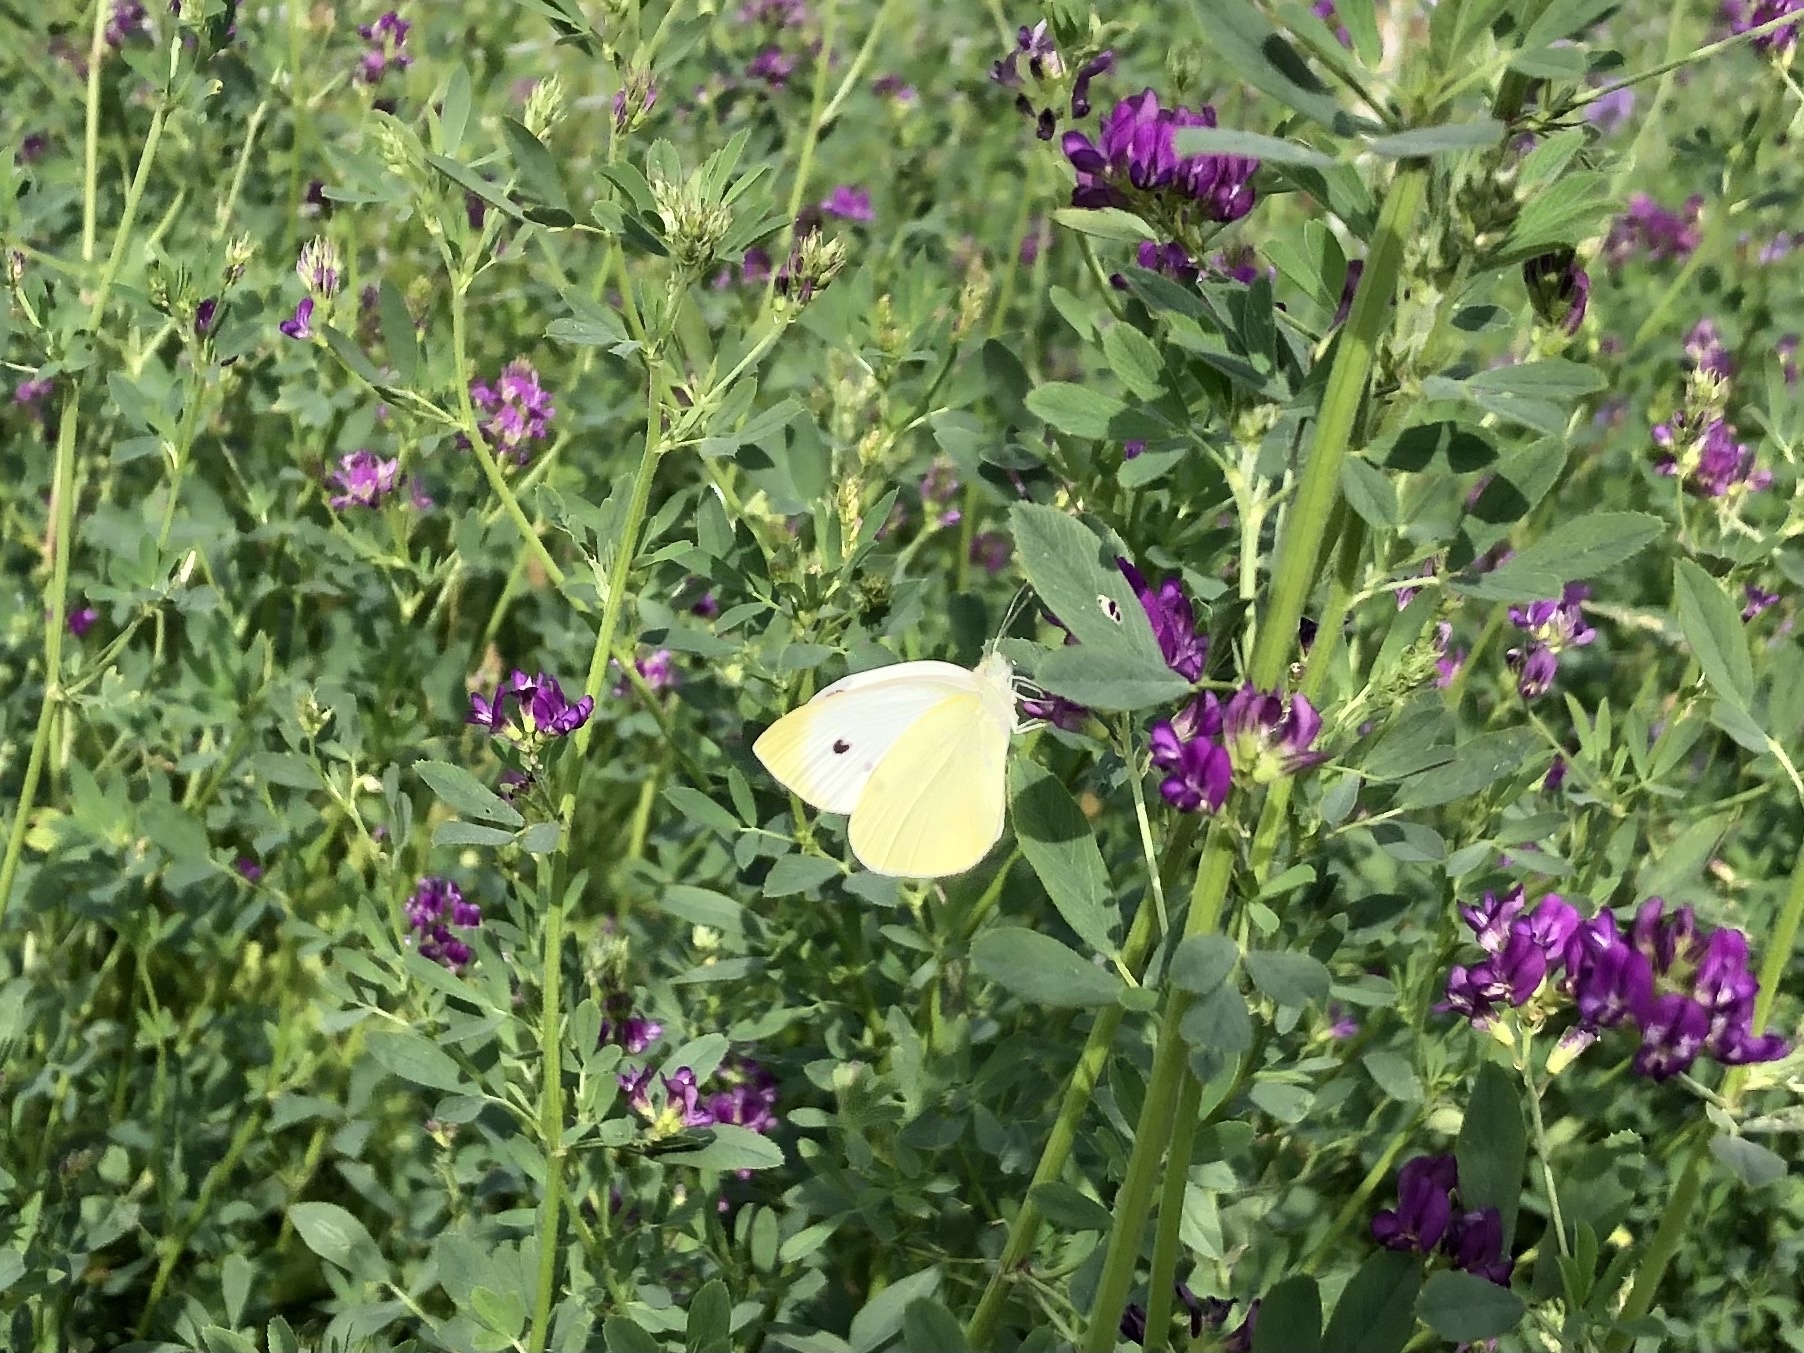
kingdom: Animalia
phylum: Arthropoda
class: Insecta
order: Lepidoptera
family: Pieridae
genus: Pieris
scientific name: Pieris rapae
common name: Small white
